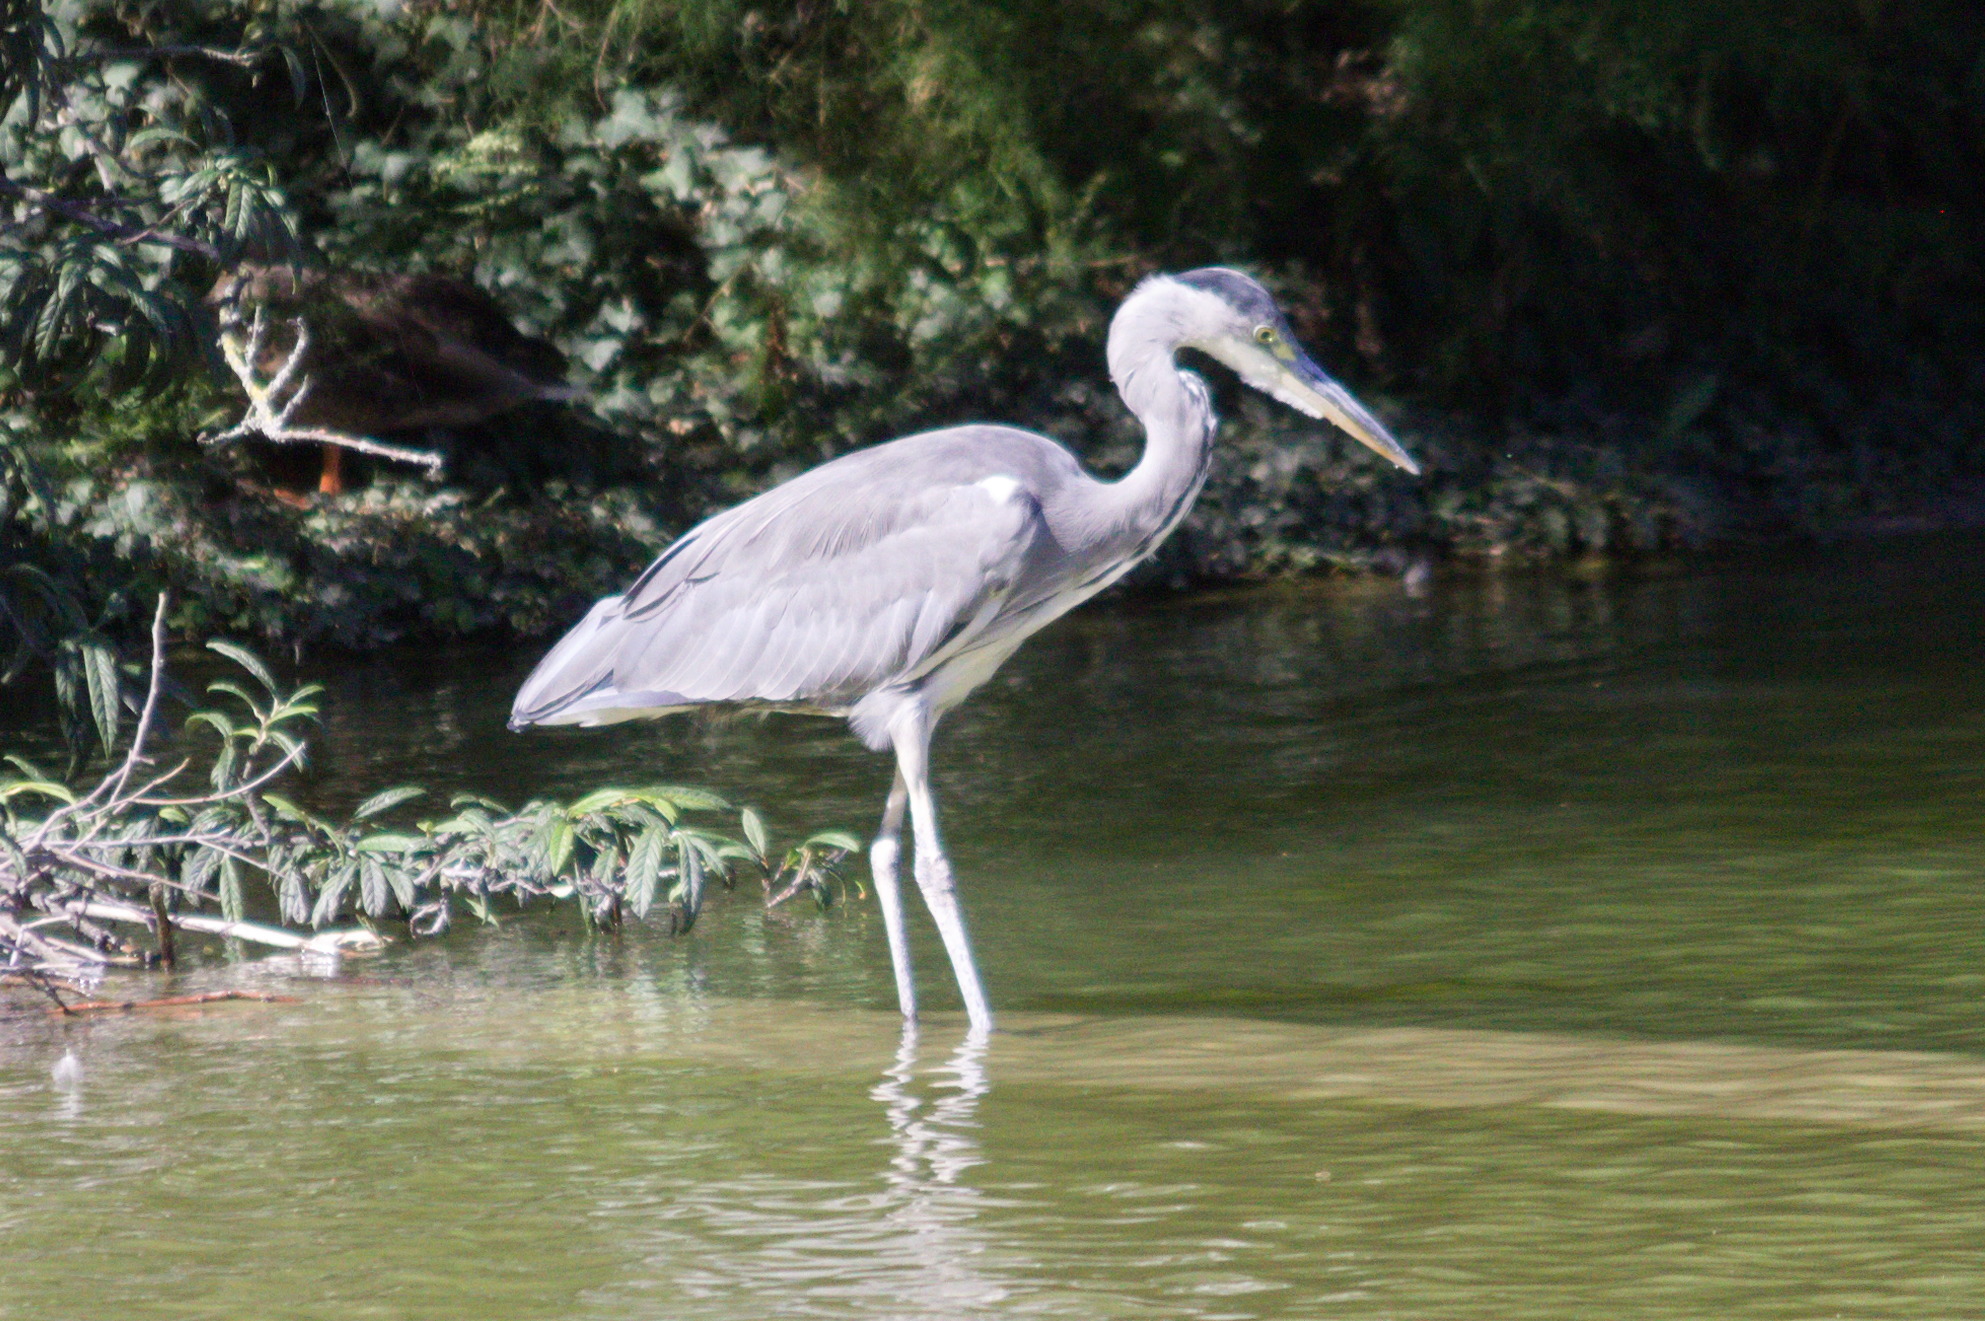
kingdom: Animalia
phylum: Chordata
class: Aves
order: Pelecaniformes
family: Ardeidae
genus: Ardea
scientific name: Ardea cinerea
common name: Grey heron
